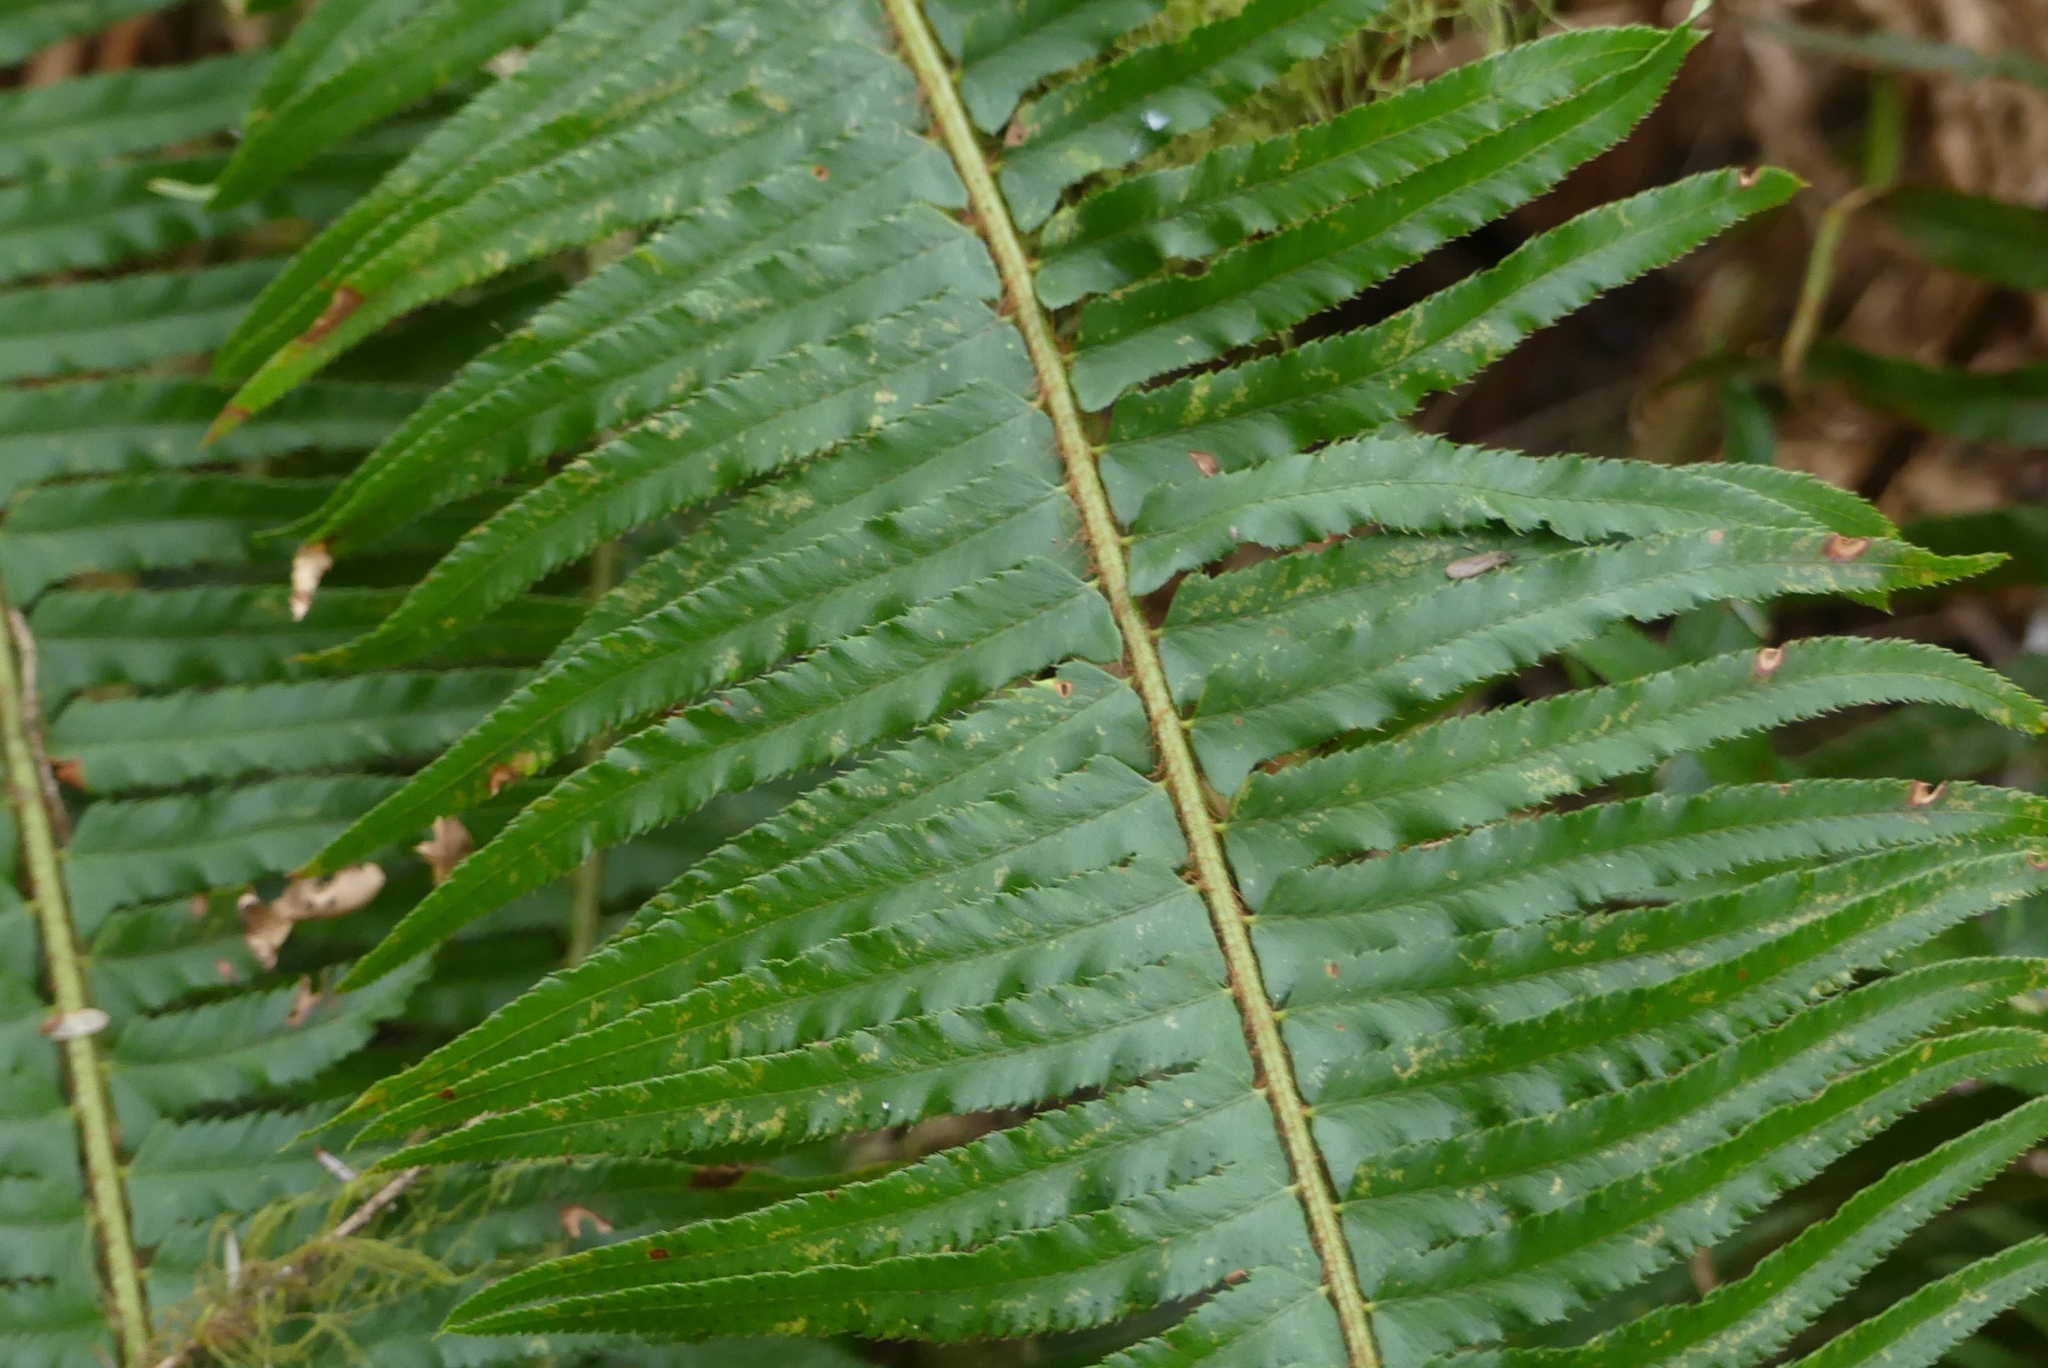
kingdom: Plantae
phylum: Tracheophyta
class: Polypodiopsida
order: Polypodiales
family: Dryopteridaceae
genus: Polystichum
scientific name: Polystichum munitum
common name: Western sword-fern
